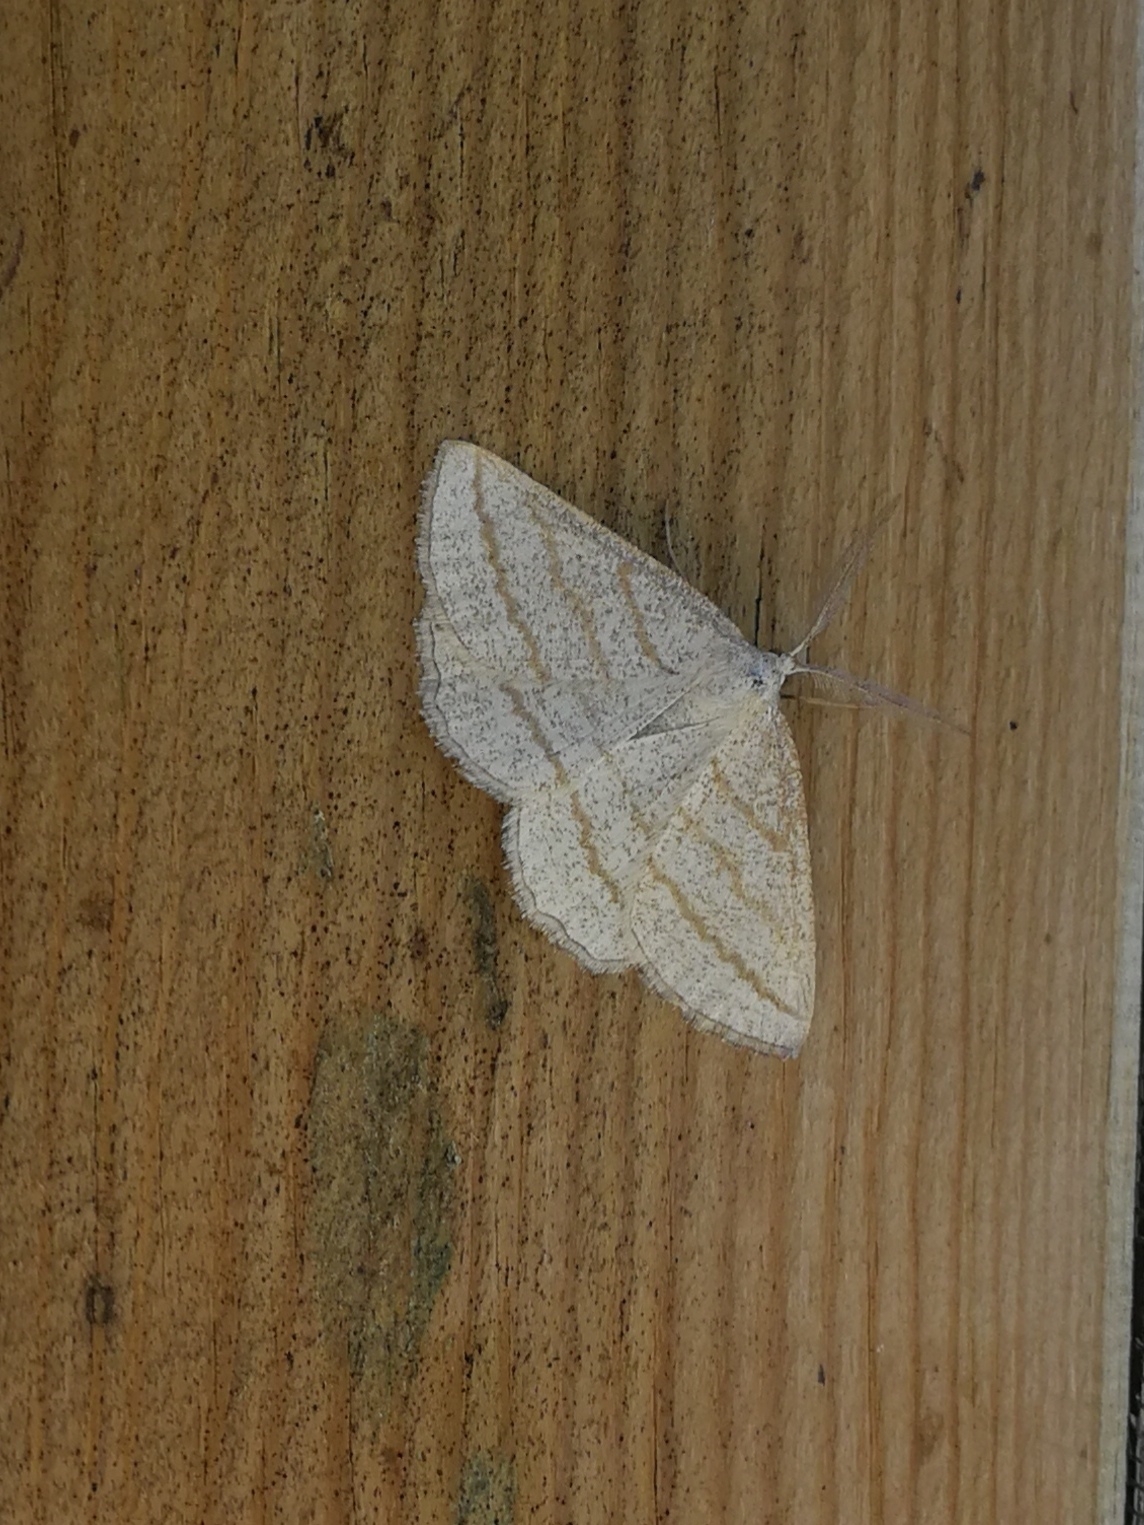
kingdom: Animalia
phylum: Arthropoda
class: Insecta
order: Lepidoptera
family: Geometridae
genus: Perconia
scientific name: Perconia strigillaria
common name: Grass wave
